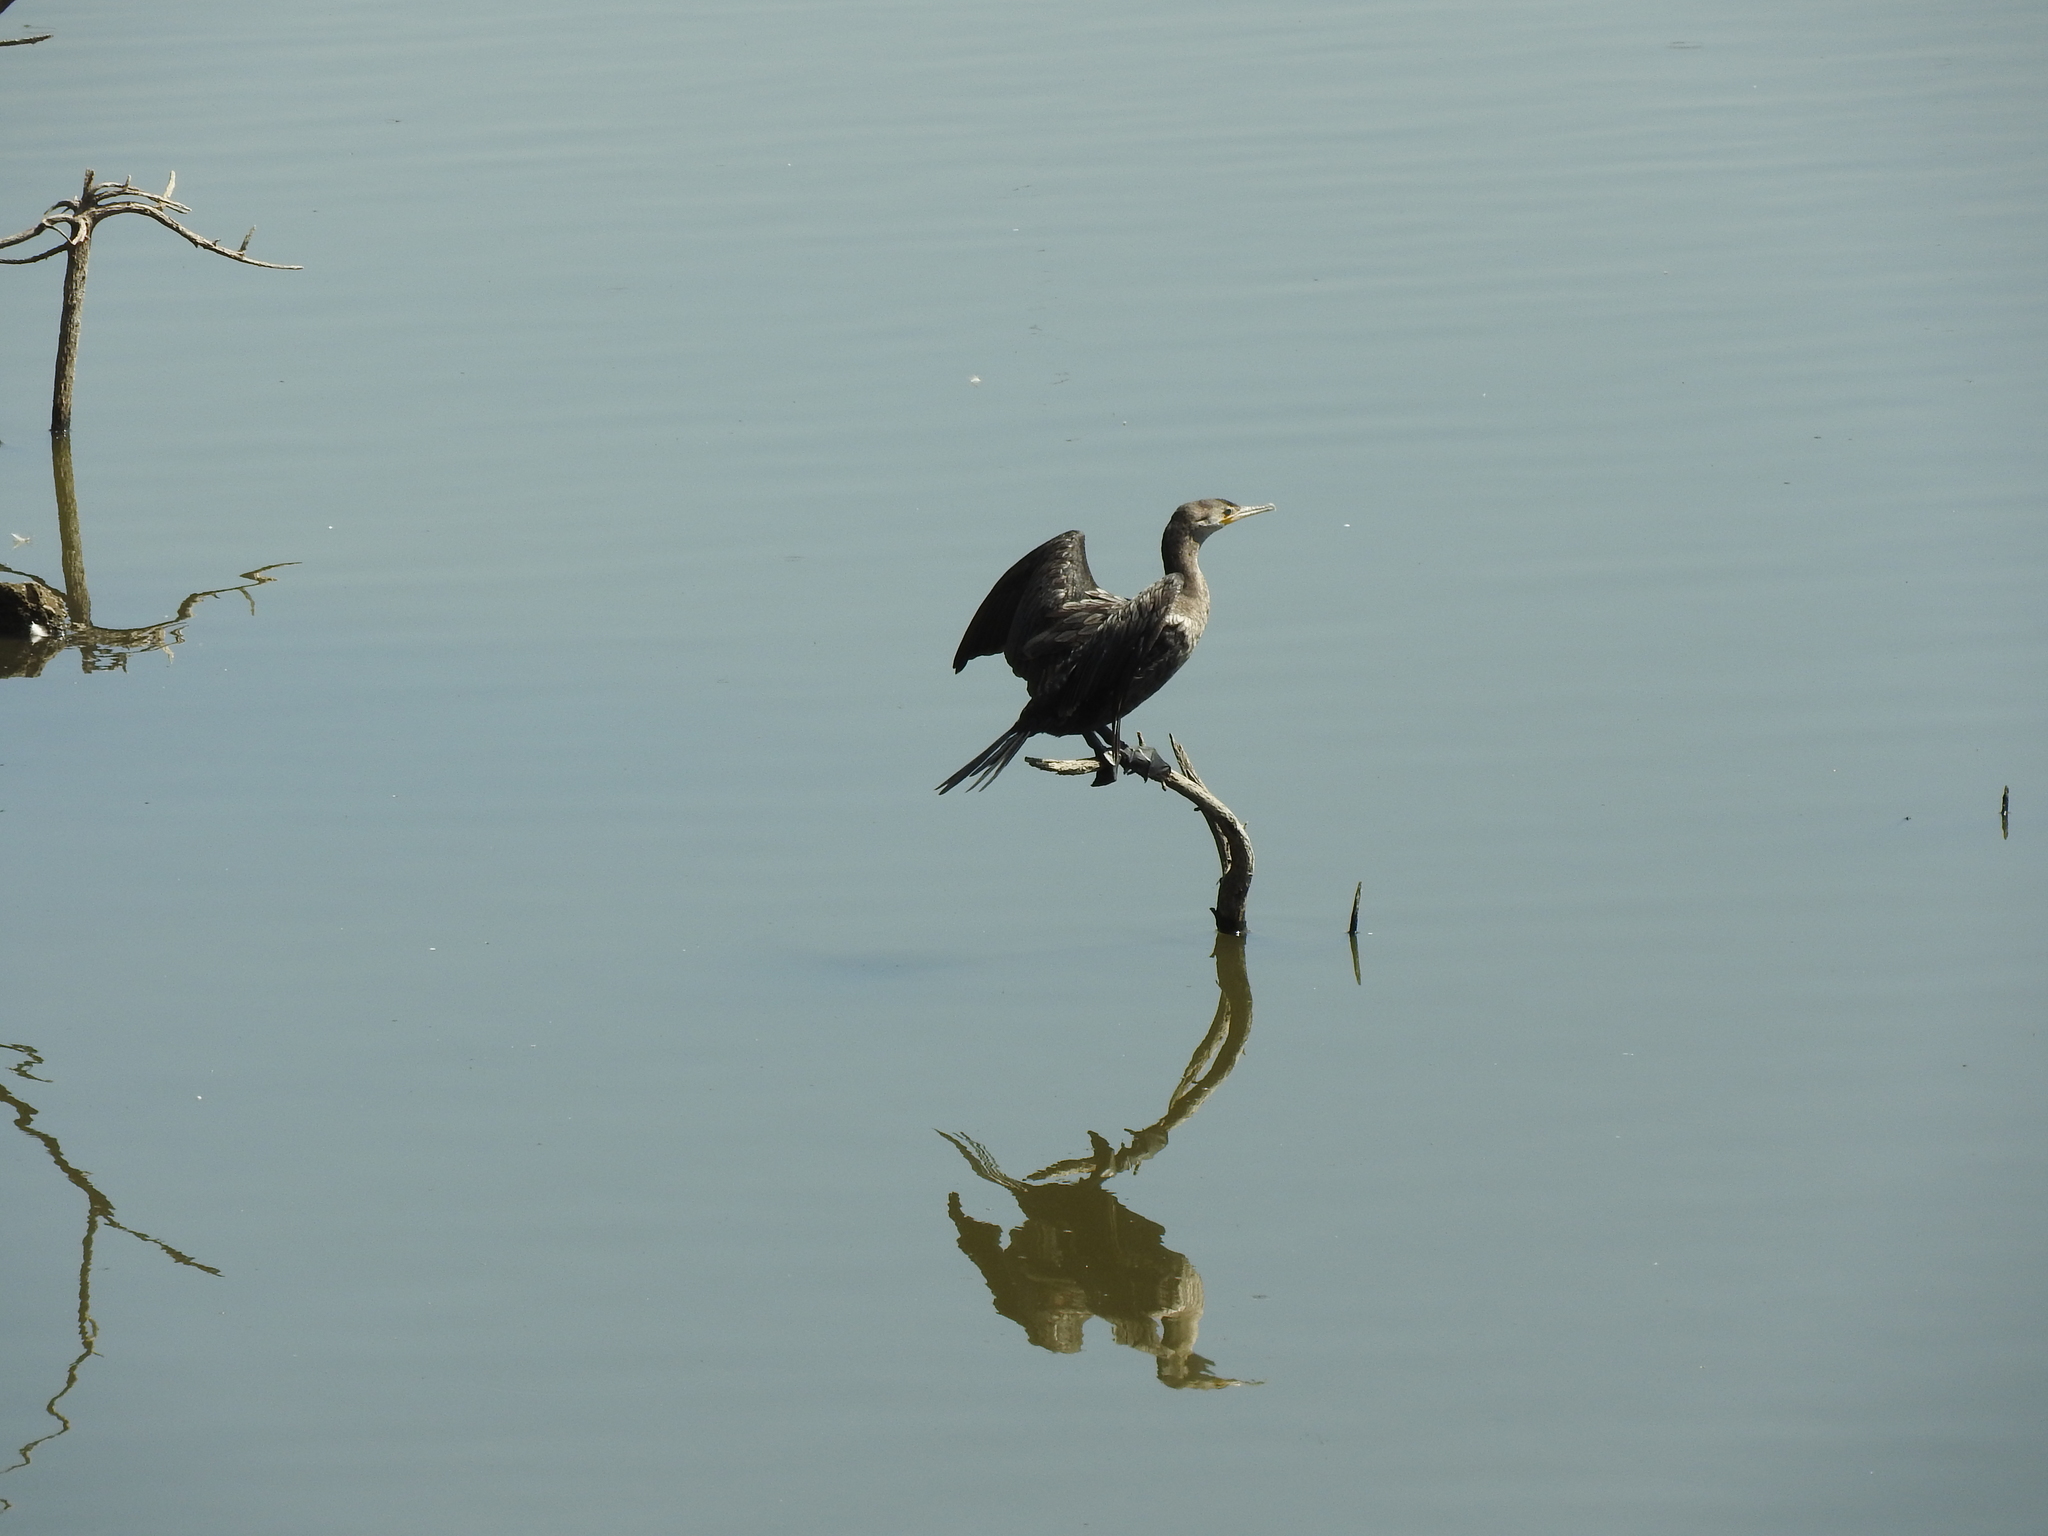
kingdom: Animalia
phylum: Chordata
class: Aves
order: Suliformes
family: Phalacrocoracidae
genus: Phalacrocorax
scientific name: Phalacrocorax brasilianus
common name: Neotropic cormorant
